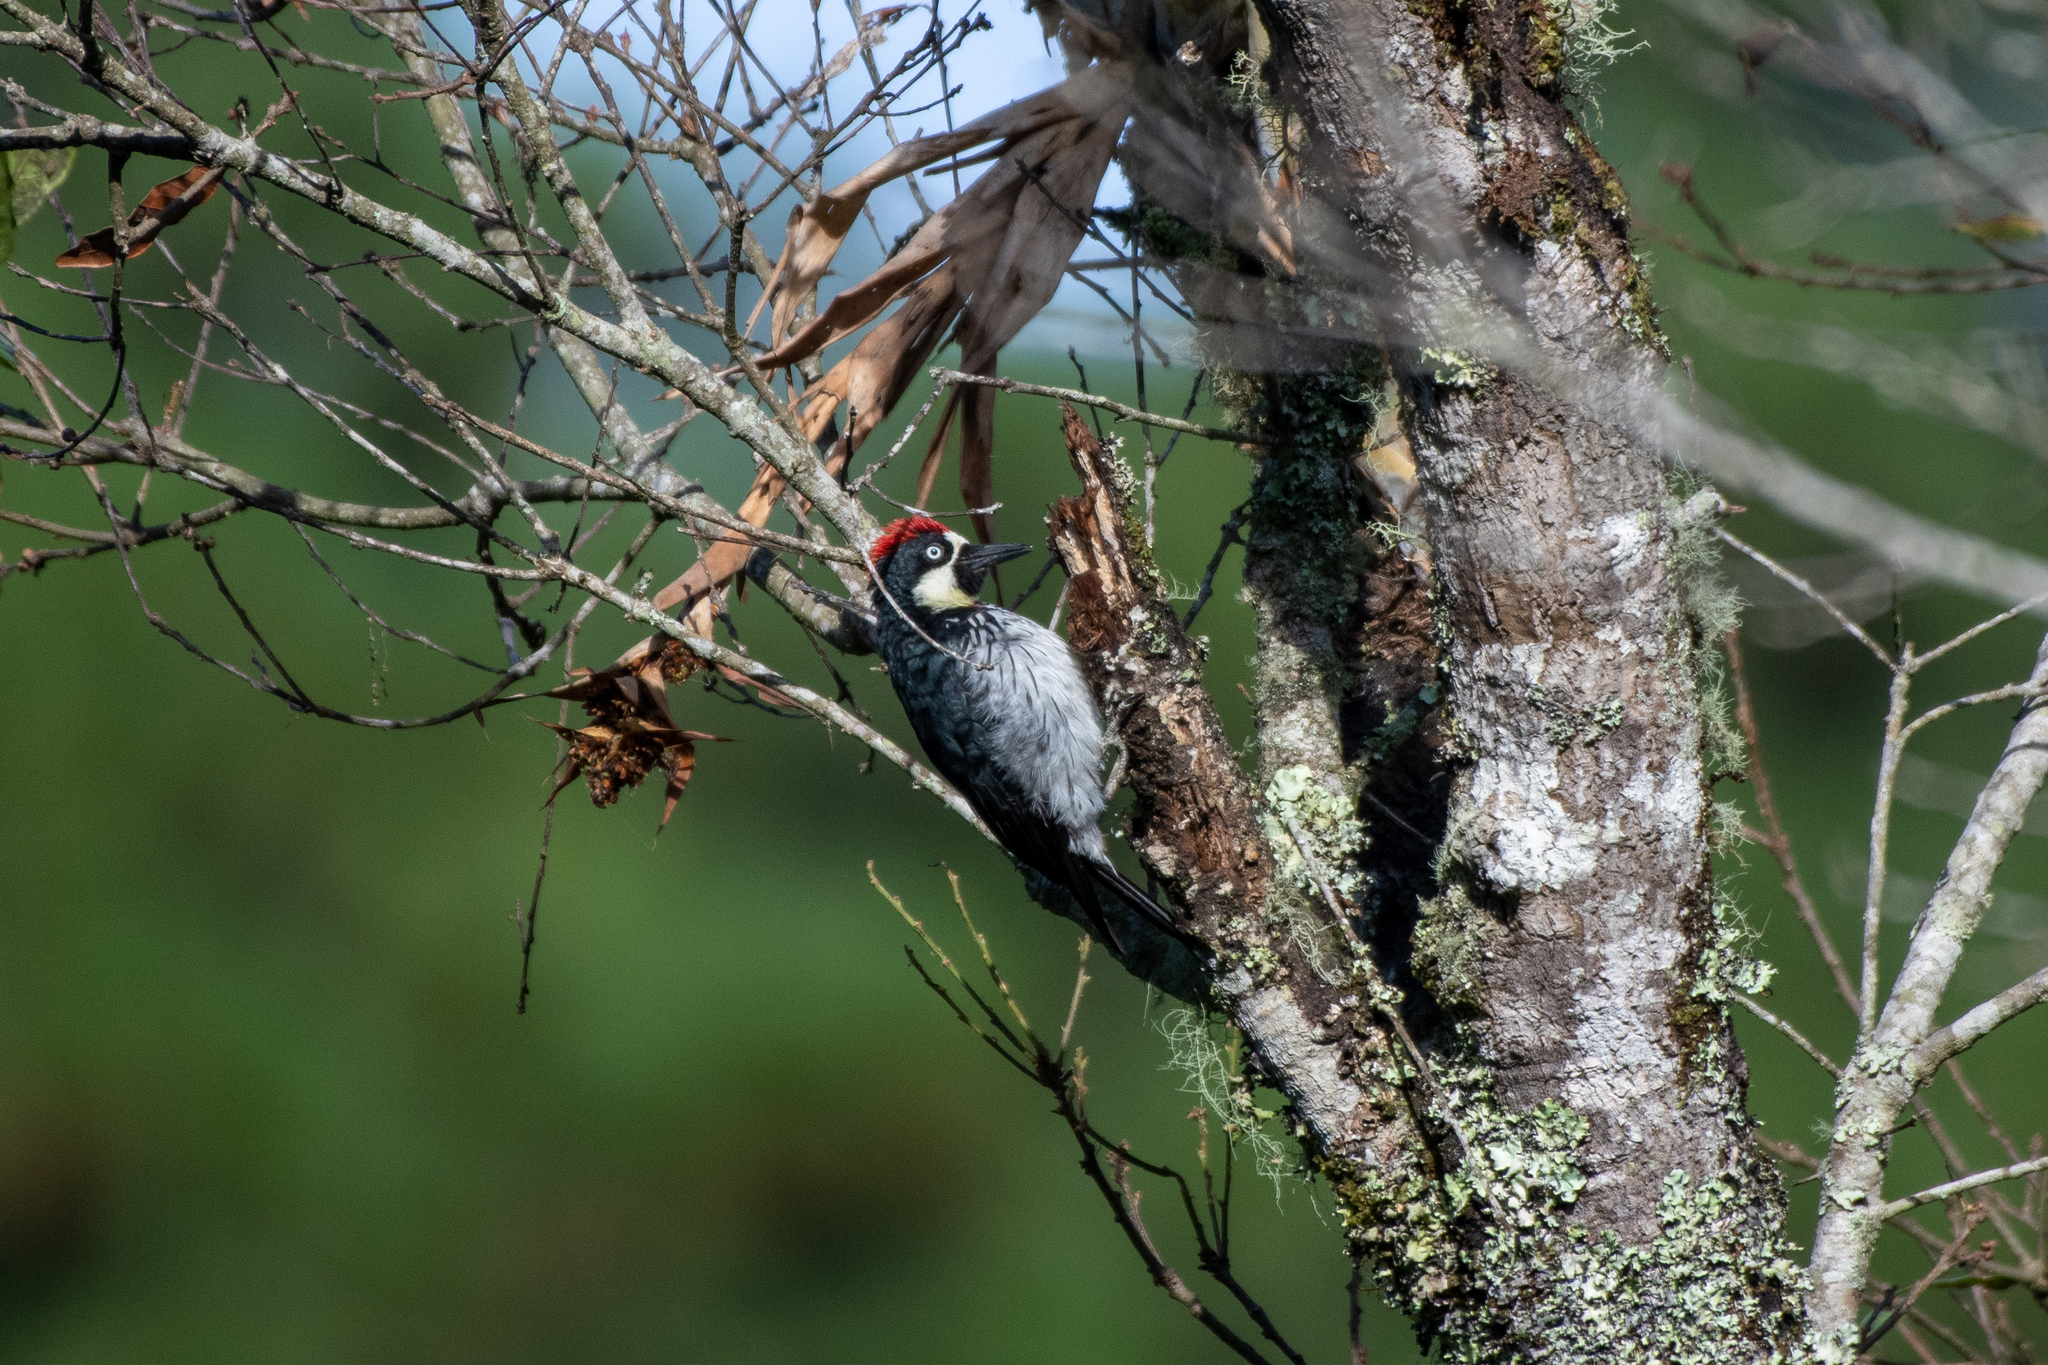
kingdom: Animalia
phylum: Chordata
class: Aves
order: Piciformes
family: Picidae
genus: Melanerpes
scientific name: Melanerpes formicivorus
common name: Acorn woodpecker
